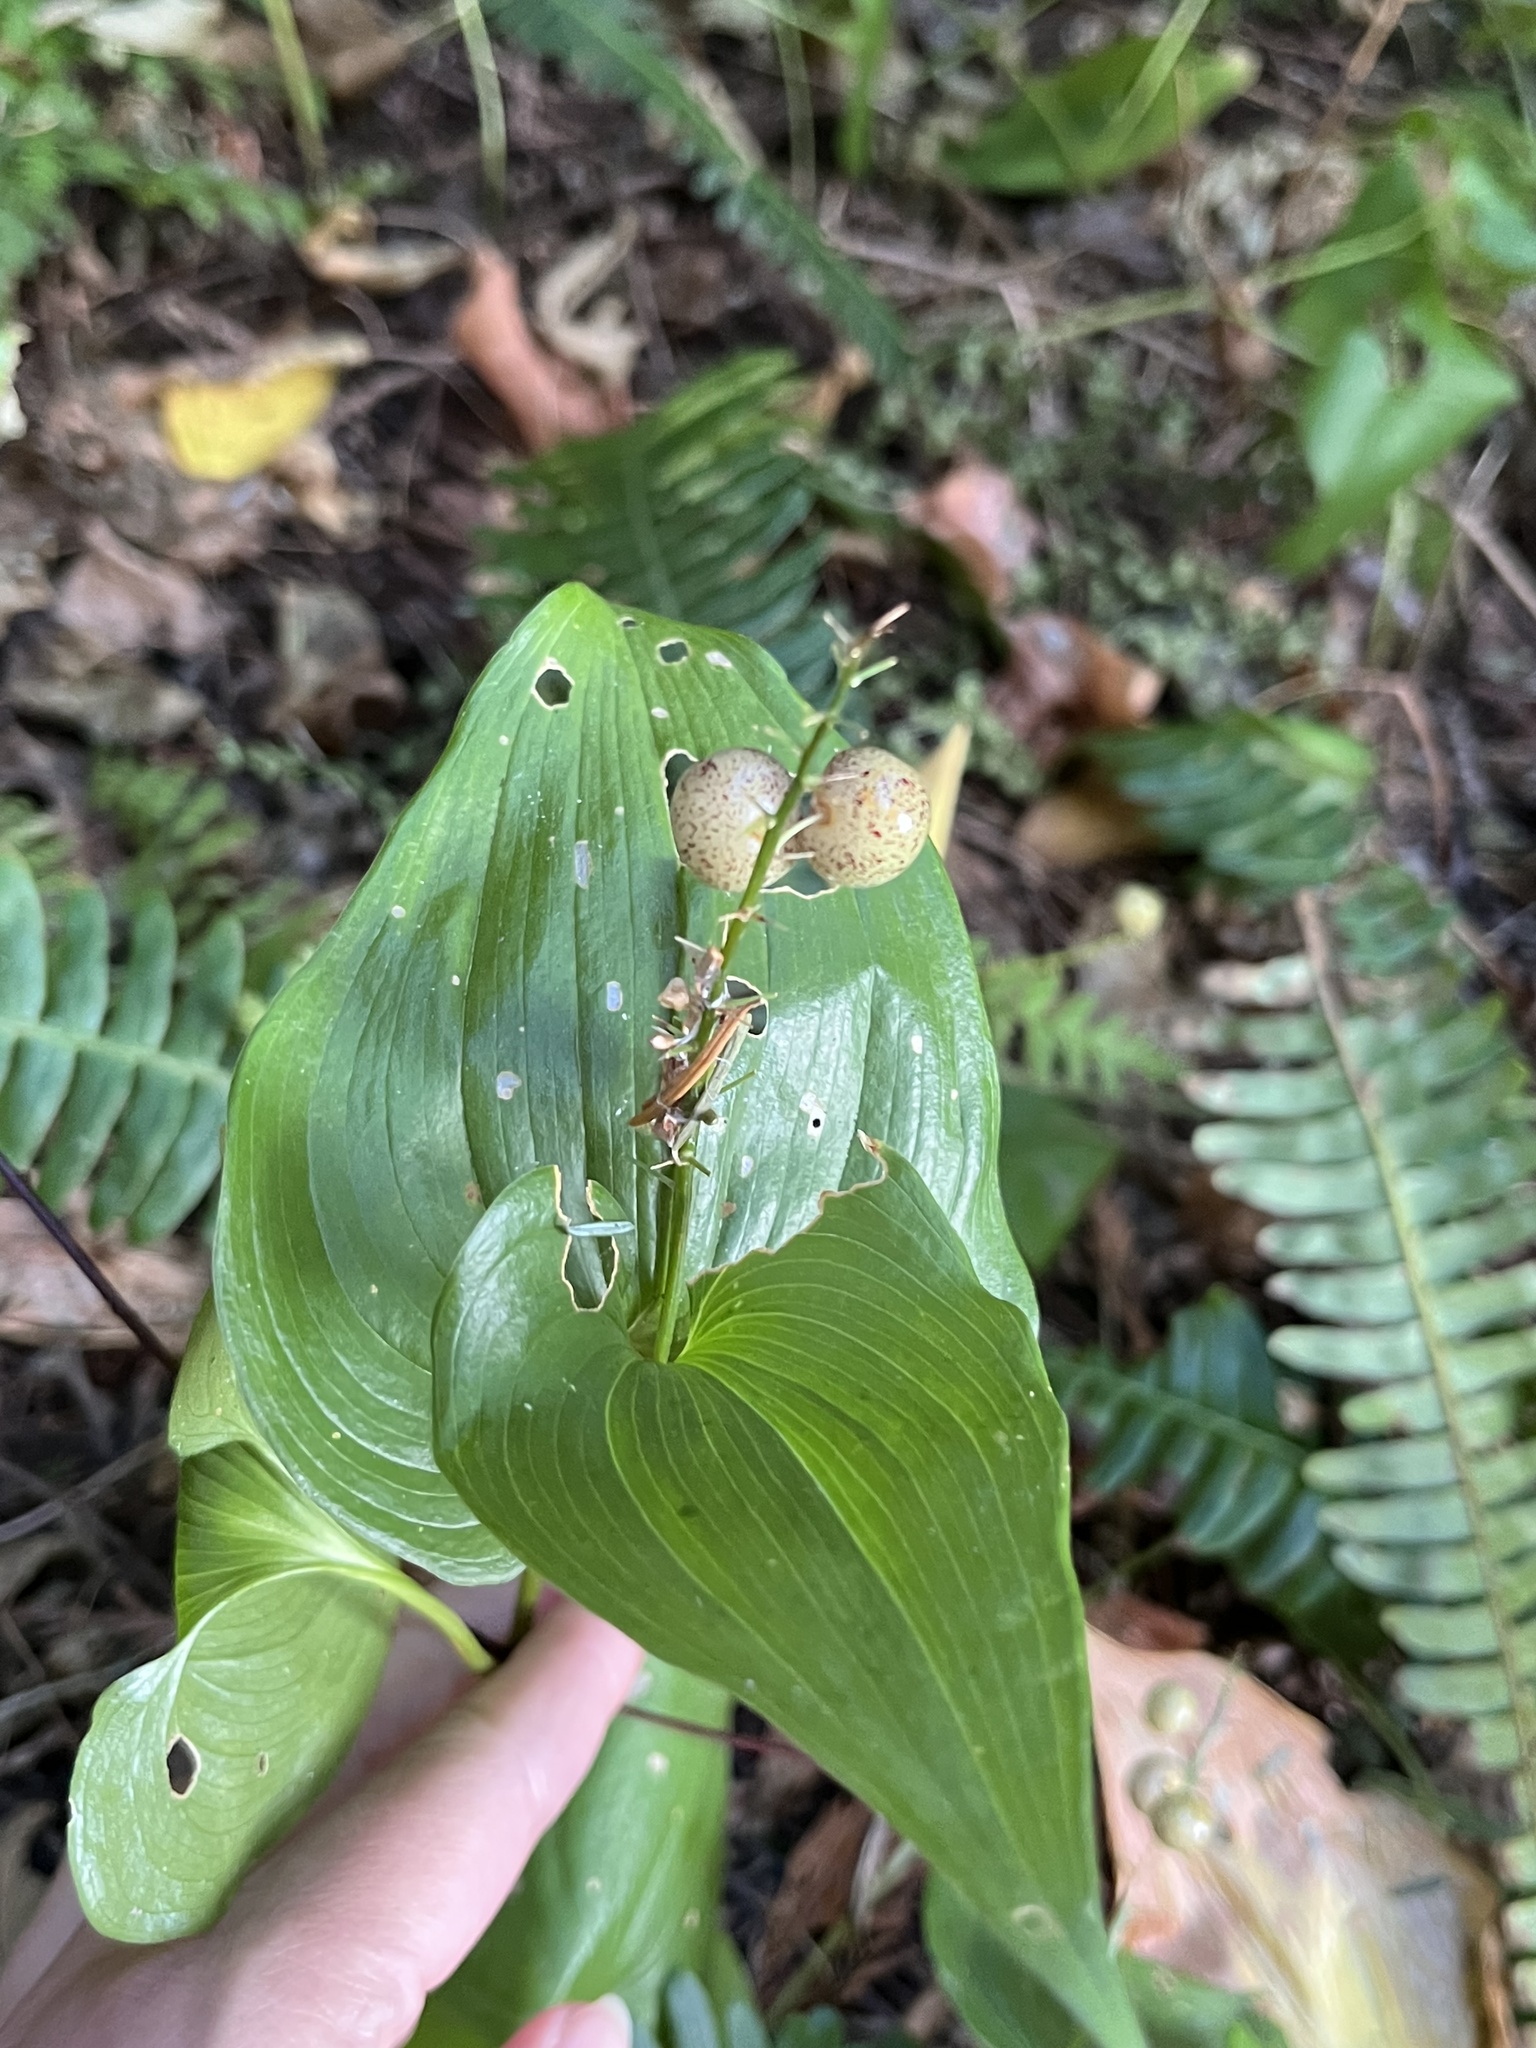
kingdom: Plantae
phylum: Tracheophyta
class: Liliopsida
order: Asparagales
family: Asparagaceae
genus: Maianthemum
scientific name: Maianthemum dilatatum
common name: False lily-of-the-valley
